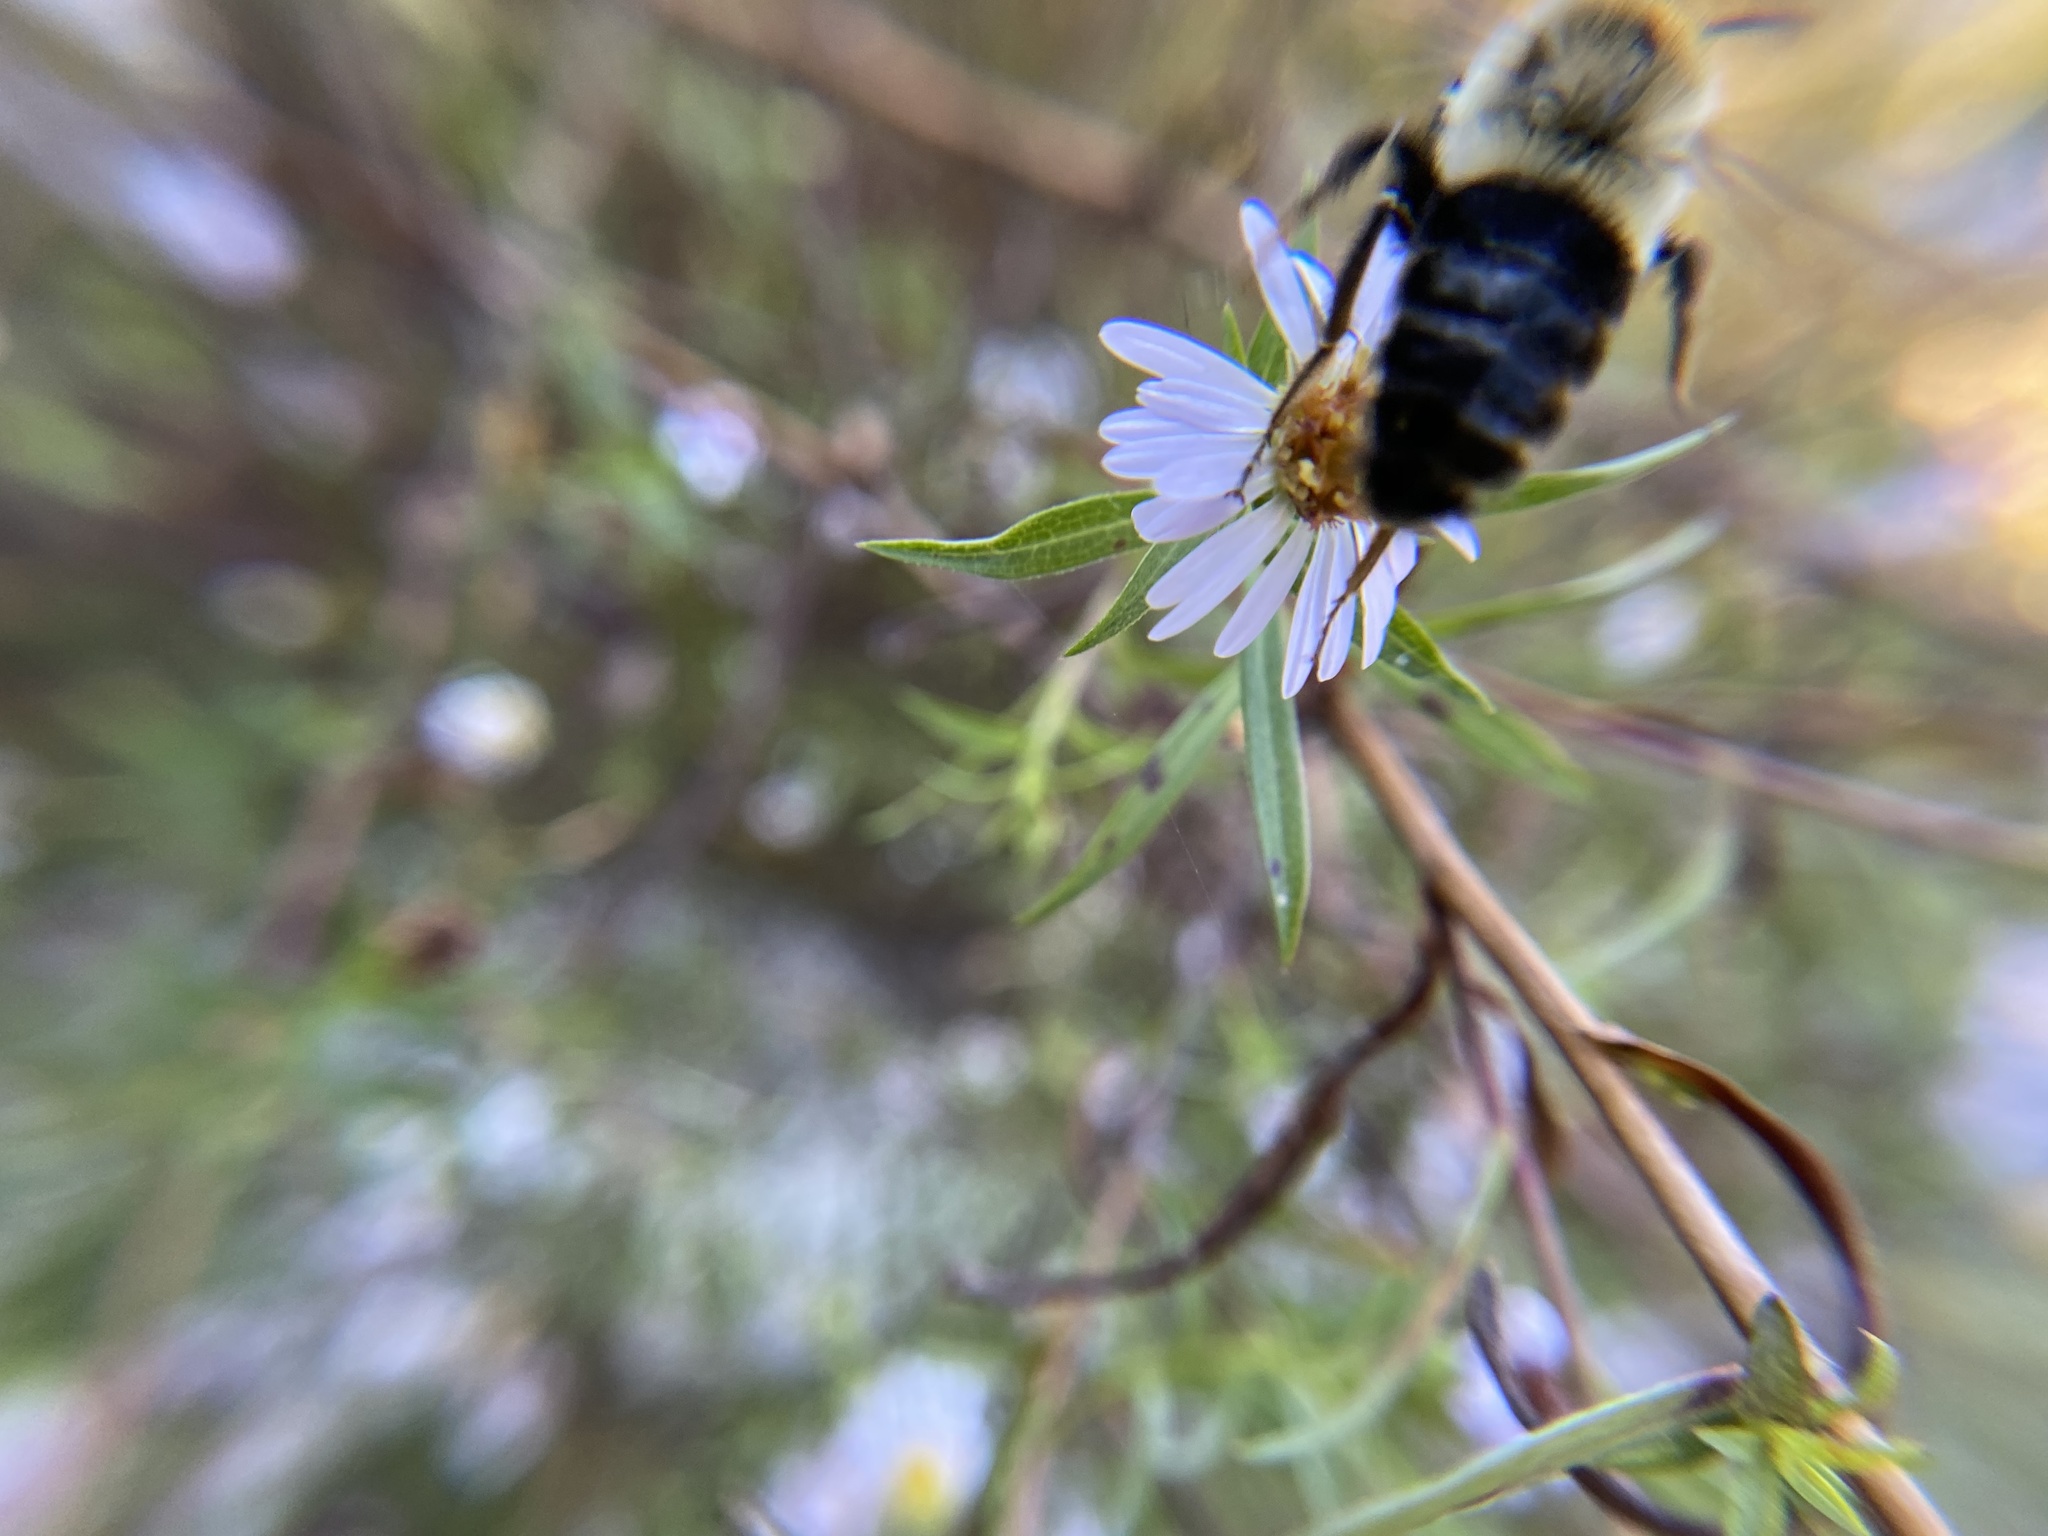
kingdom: Animalia
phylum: Arthropoda
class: Insecta
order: Hymenoptera
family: Apidae
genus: Bombus
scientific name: Bombus impatiens
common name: Common eastern bumble bee
